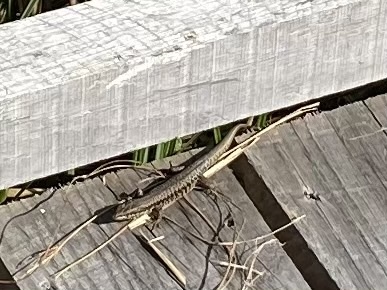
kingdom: Animalia
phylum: Chordata
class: Squamata
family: Lacertidae
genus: Podarcis
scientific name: Podarcis muralis
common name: Common wall lizard
